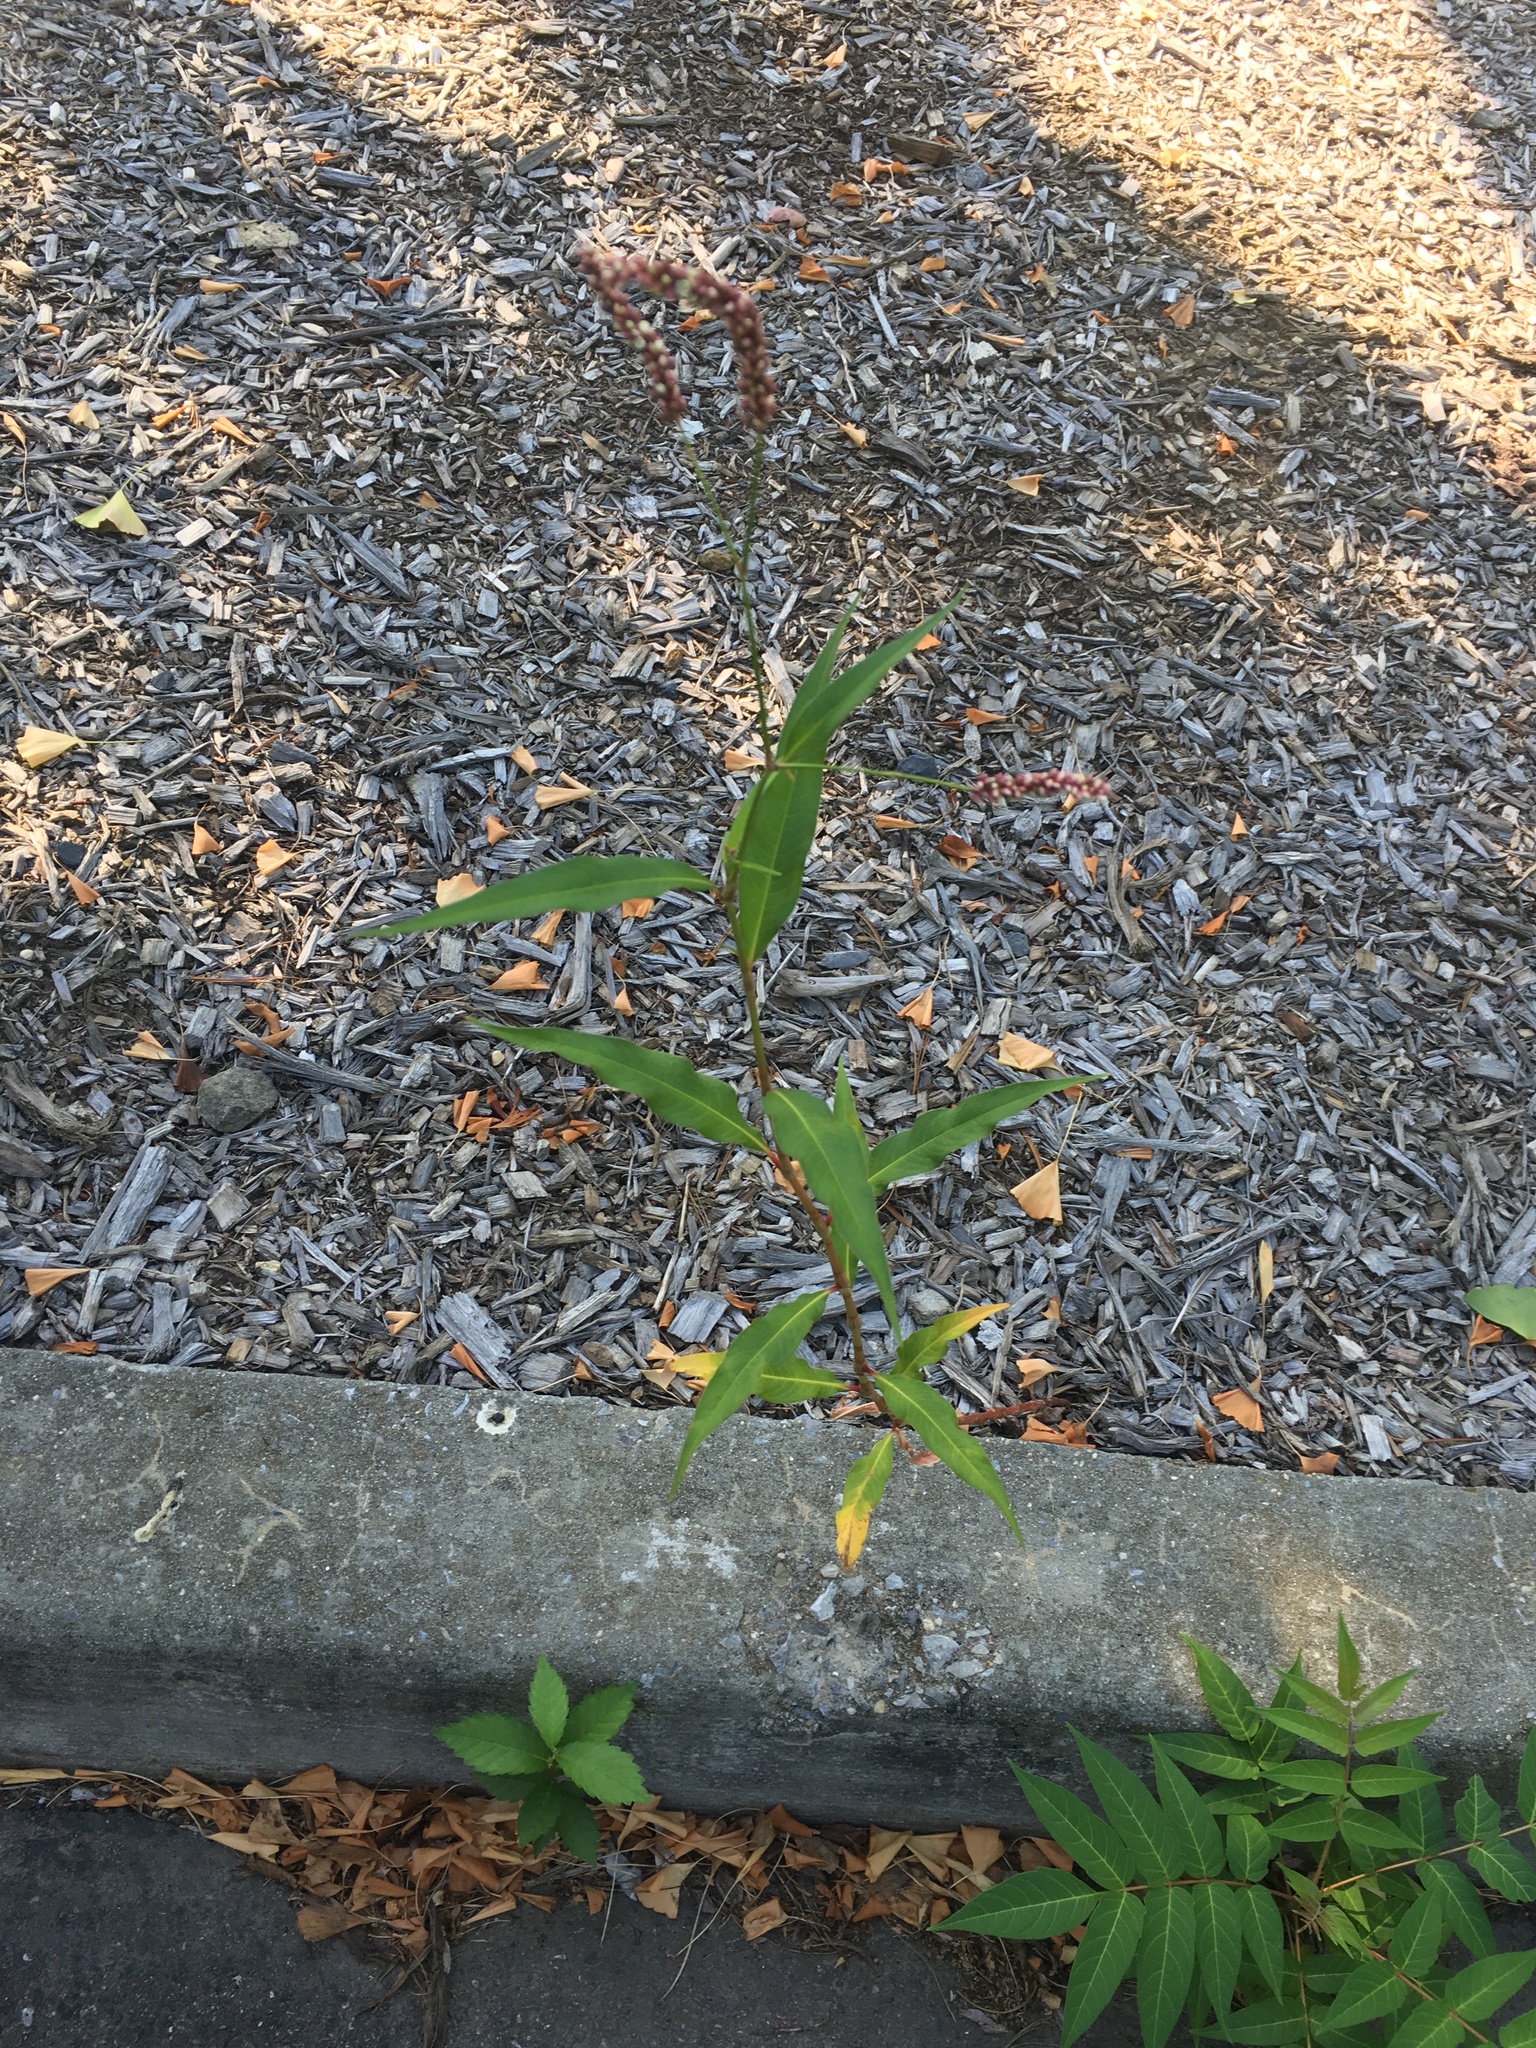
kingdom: Plantae
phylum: Tracheophyta
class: Magnoliopsida
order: Caryophyllales
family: Polygonaceae
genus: Persicaria
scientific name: Persicaria extremiorientalis
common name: Far-eastern smartweed
